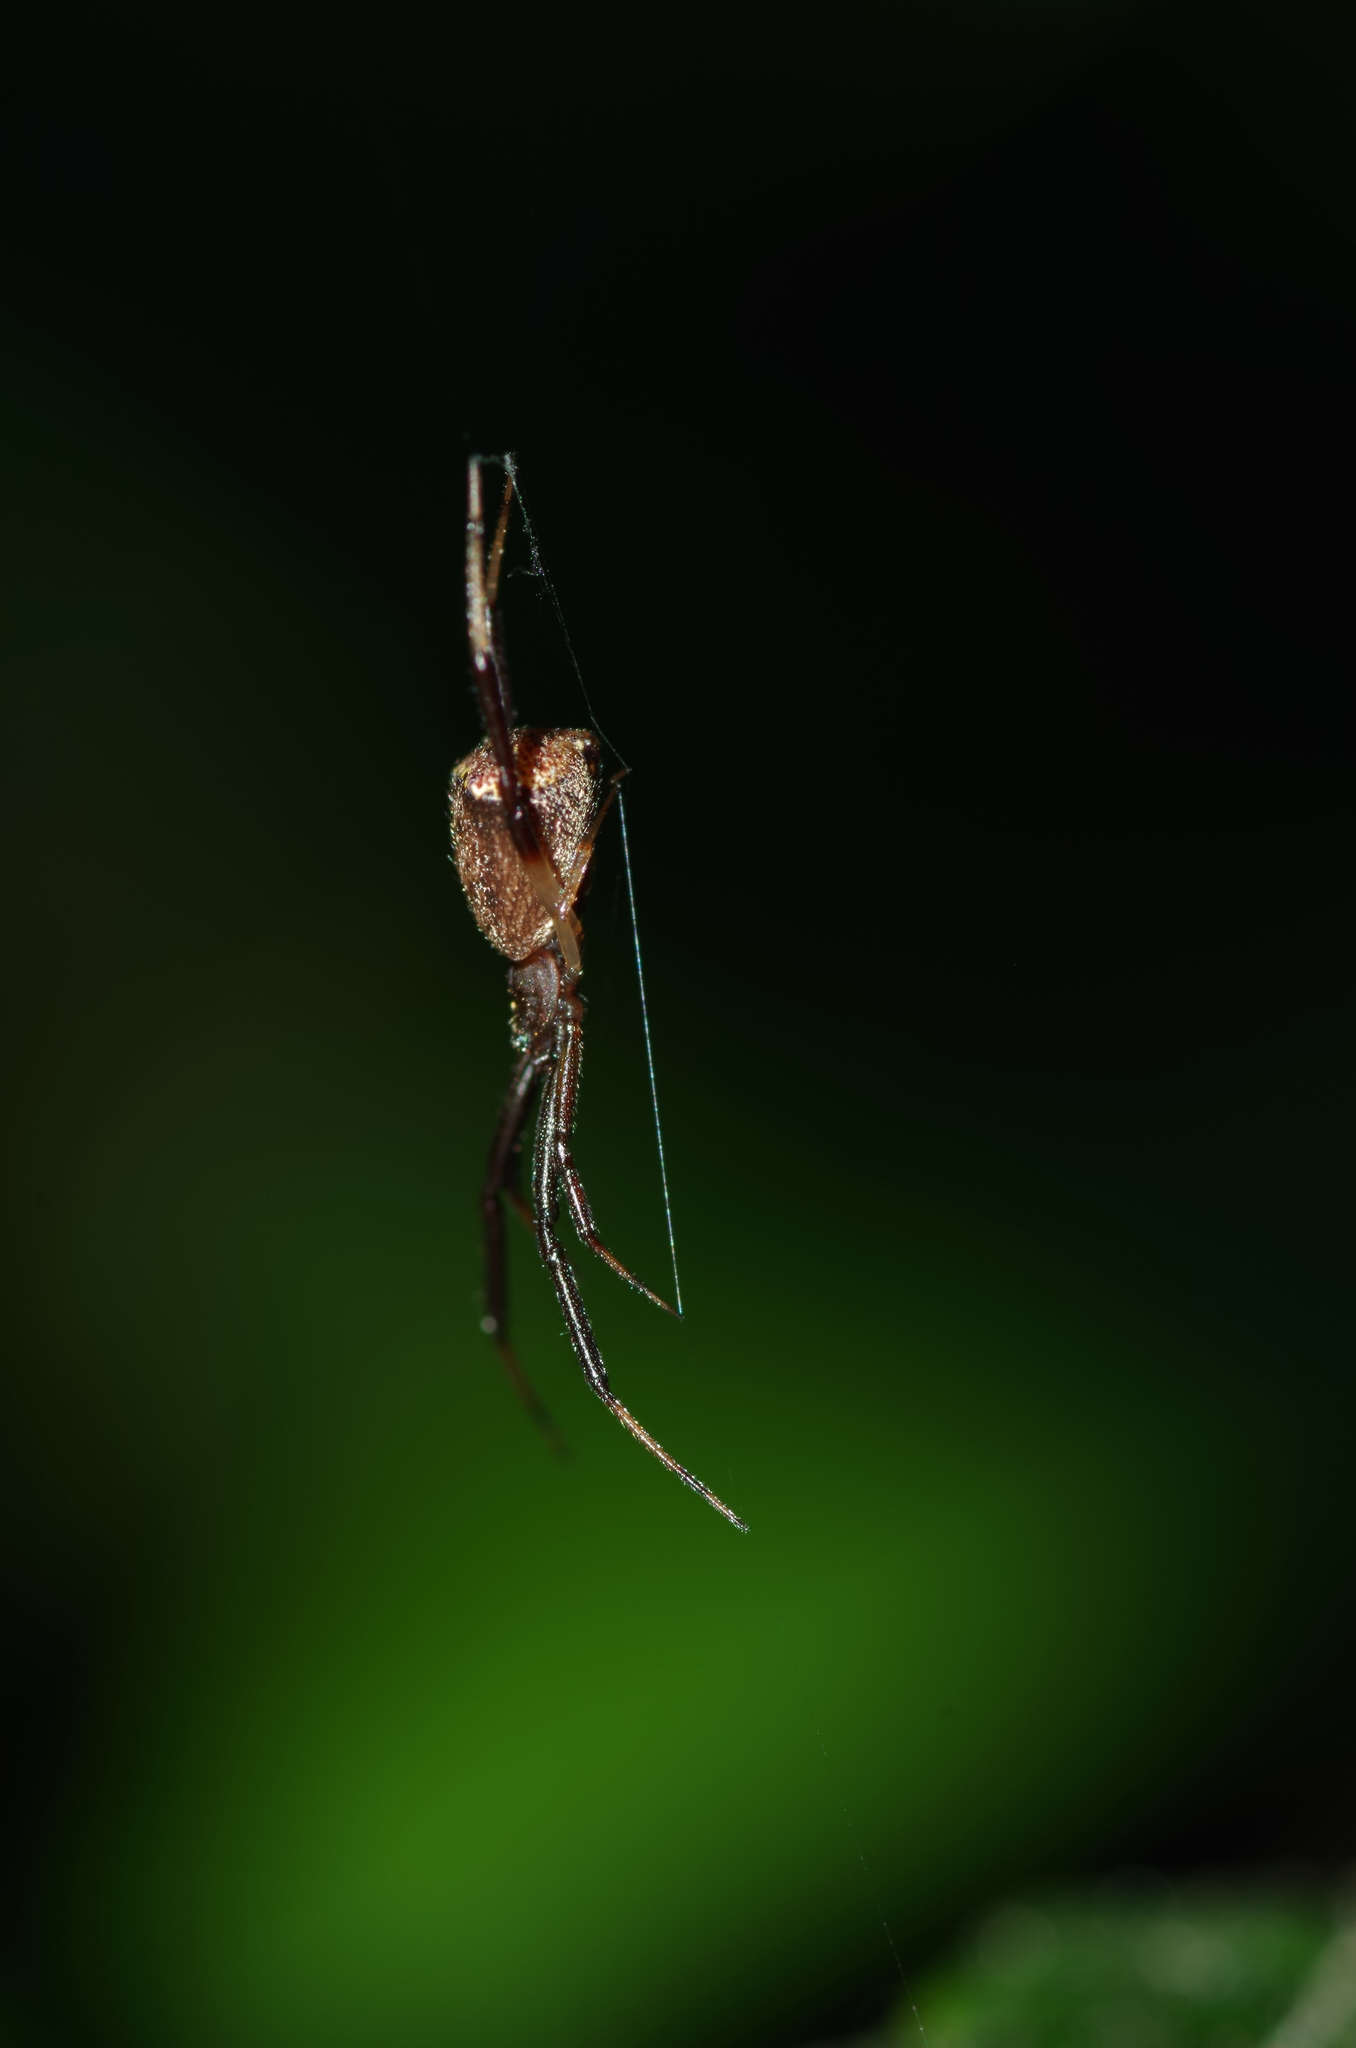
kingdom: Animalia
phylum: Arthropoda
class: Arachnida
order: Araneae
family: Theridiidae
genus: Episinus
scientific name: Episinus truncatus
